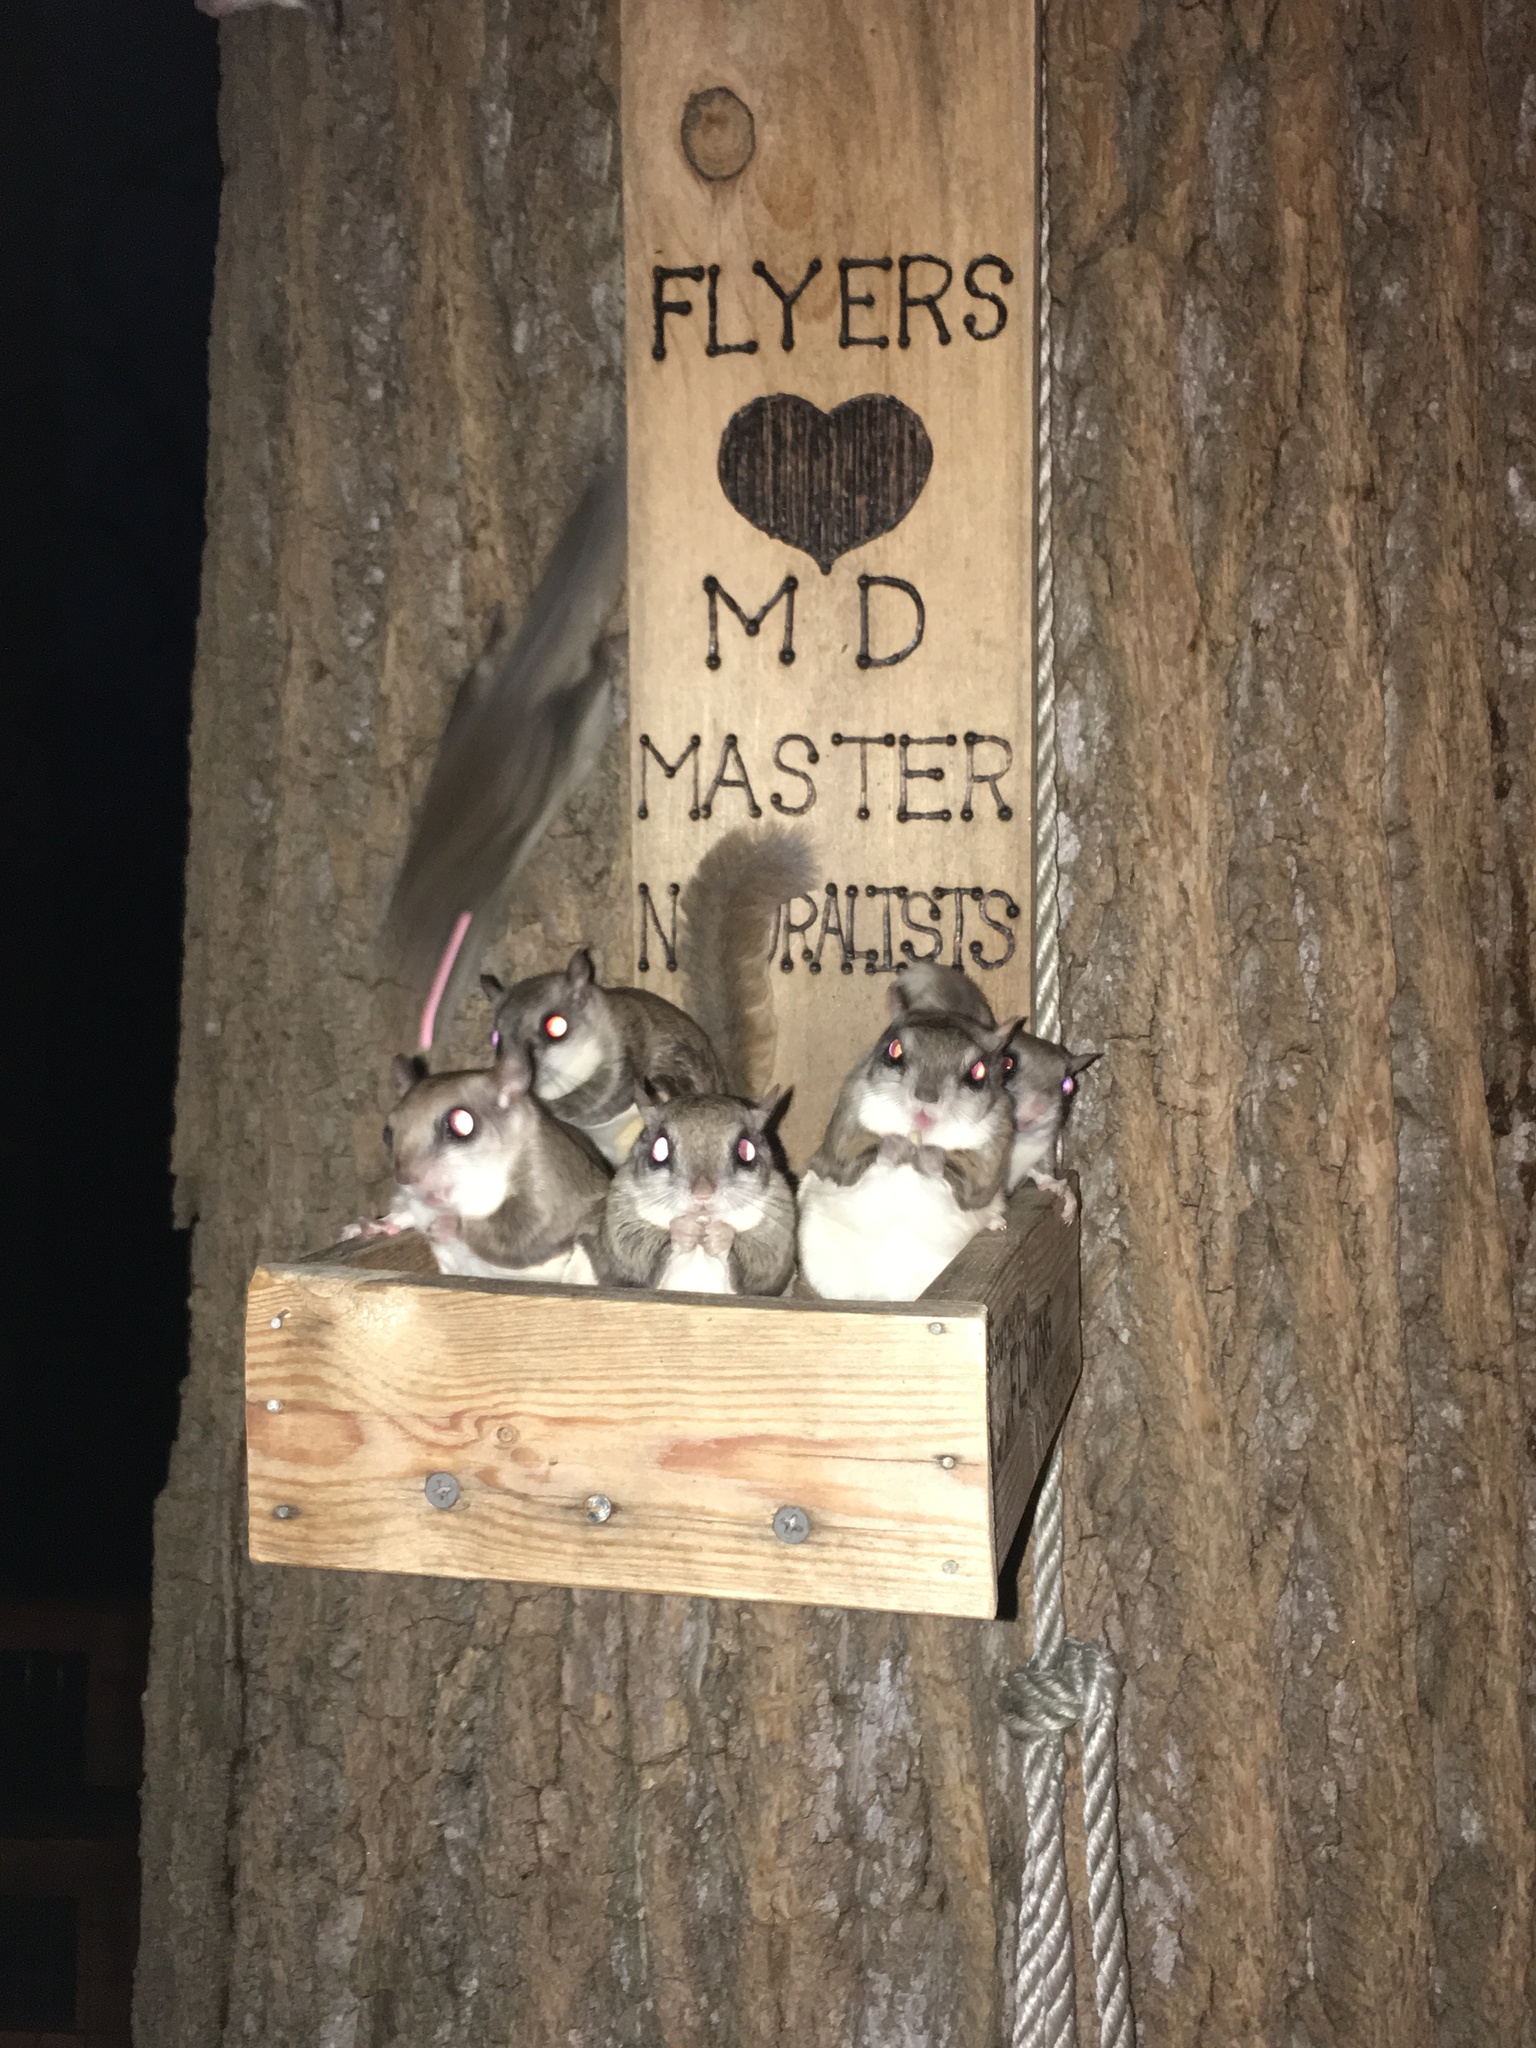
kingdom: Animalia
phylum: Chordata
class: Mammalia
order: Rodentia
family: Sciuridae
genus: Glaucomys
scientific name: Glaucomys volans
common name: Southern flying squirrel
